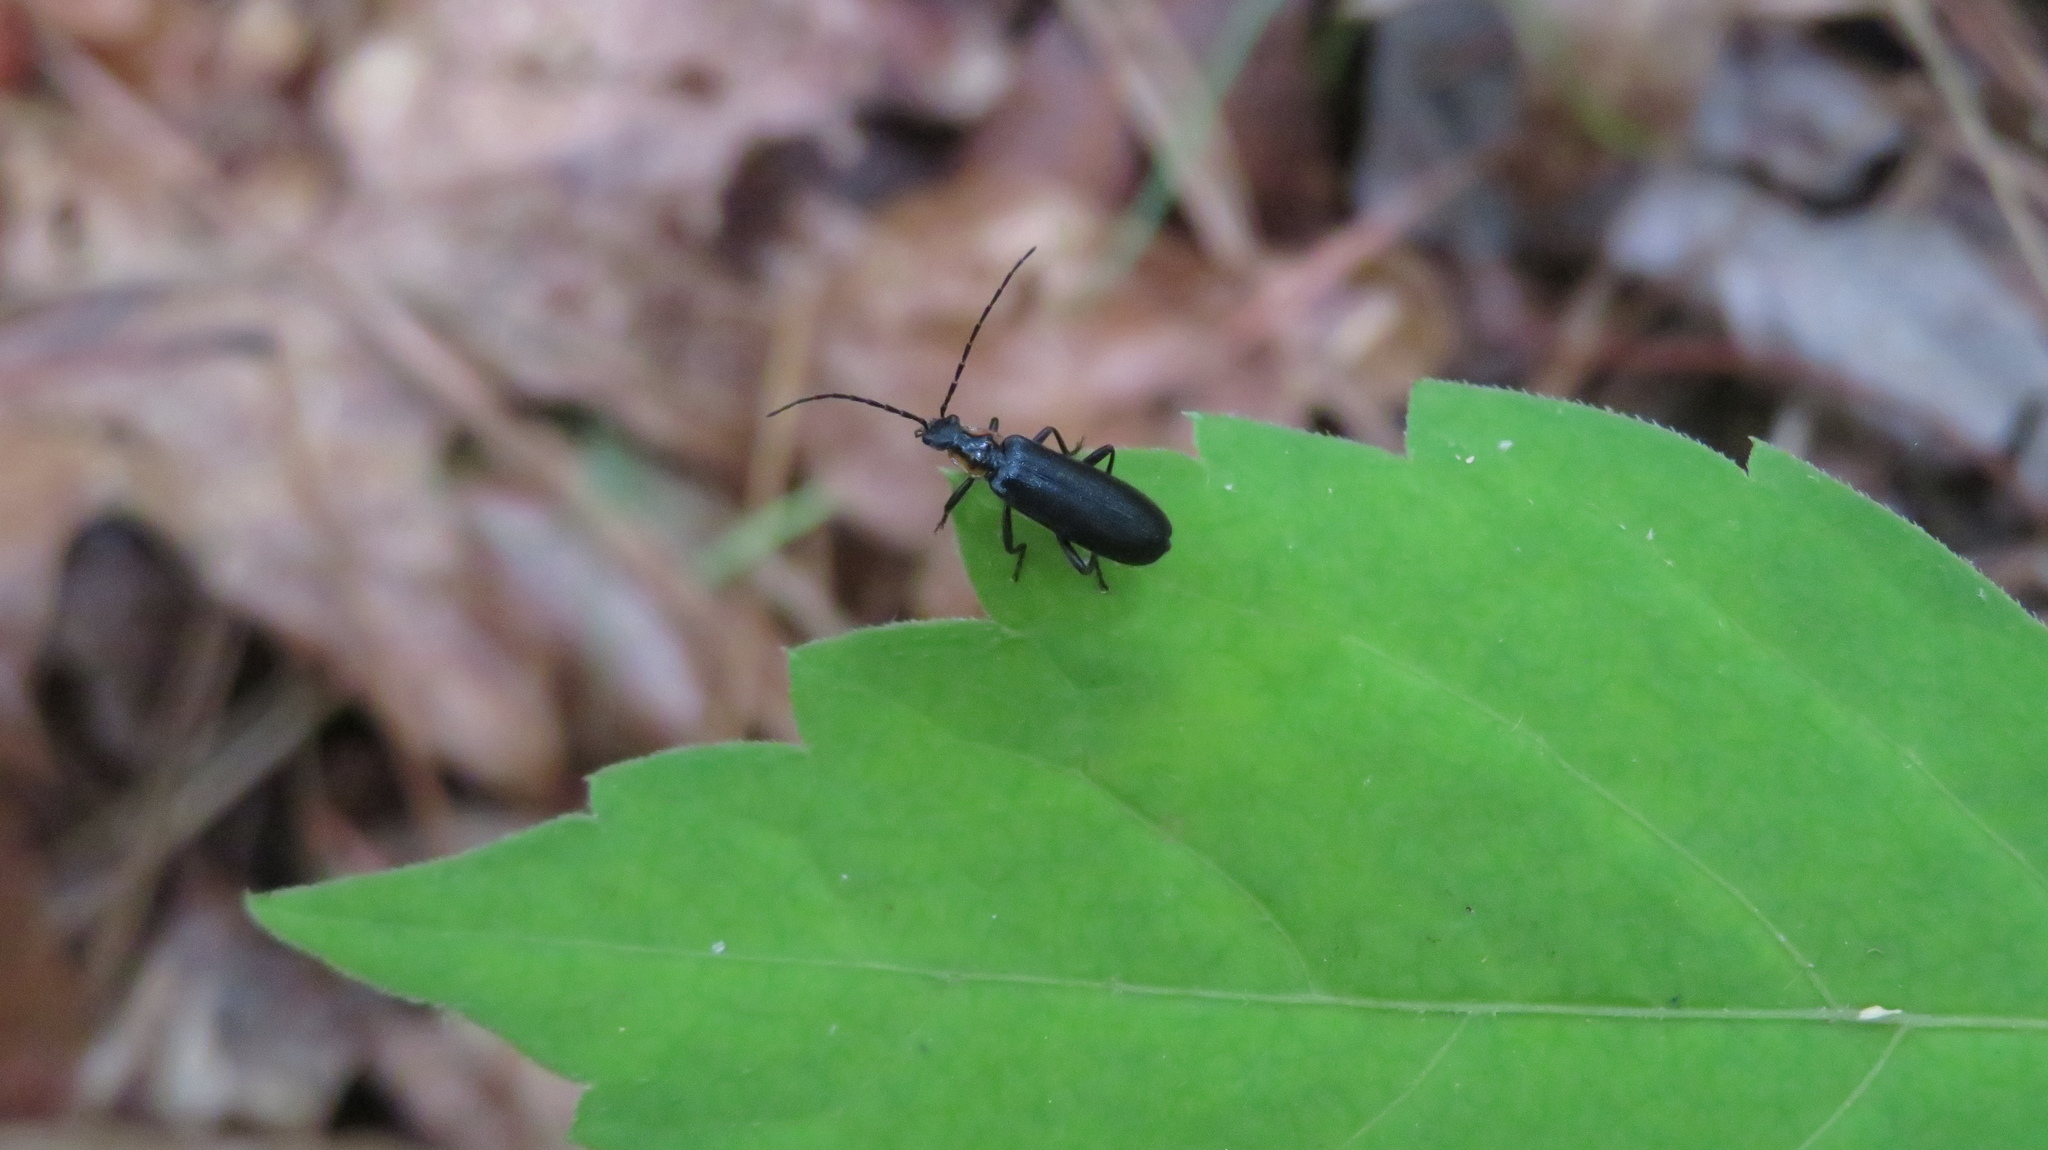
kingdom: Animalia
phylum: Arthropoda
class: Insecta
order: Coleoptera
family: Cantharidae
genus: Rhagonycha
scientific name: Rhagonycha angulata
